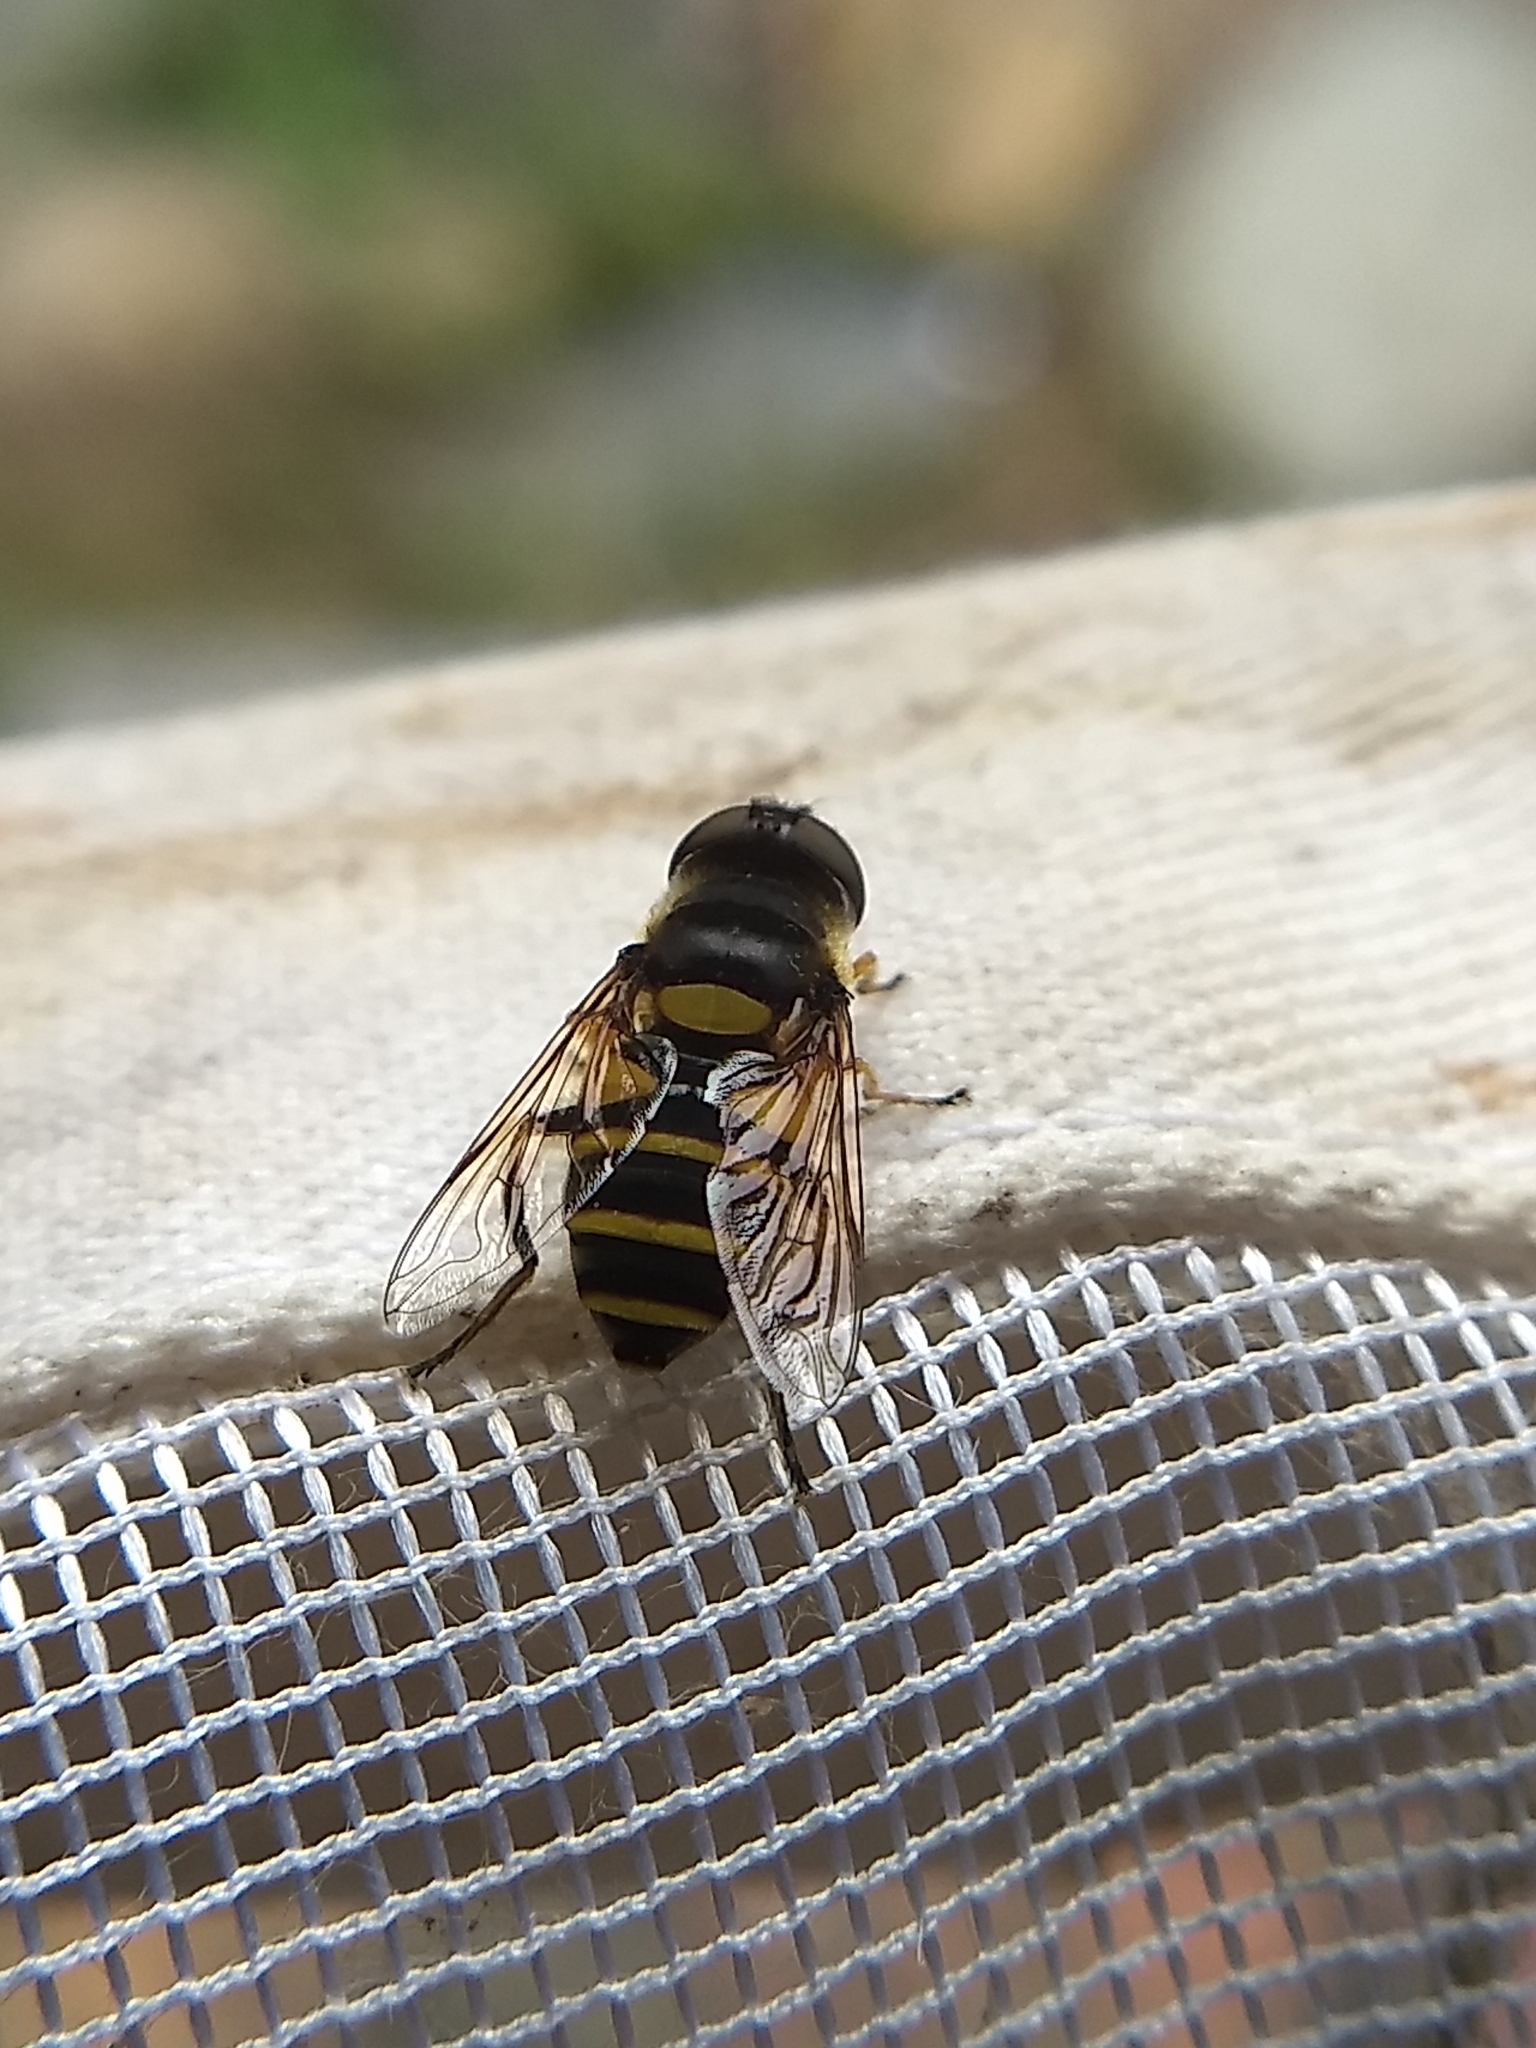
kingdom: Animalia
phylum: Arthropoda
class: Insecta
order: Diptera
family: Syrphidae
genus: Eristalis
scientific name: Eristalis transversa
